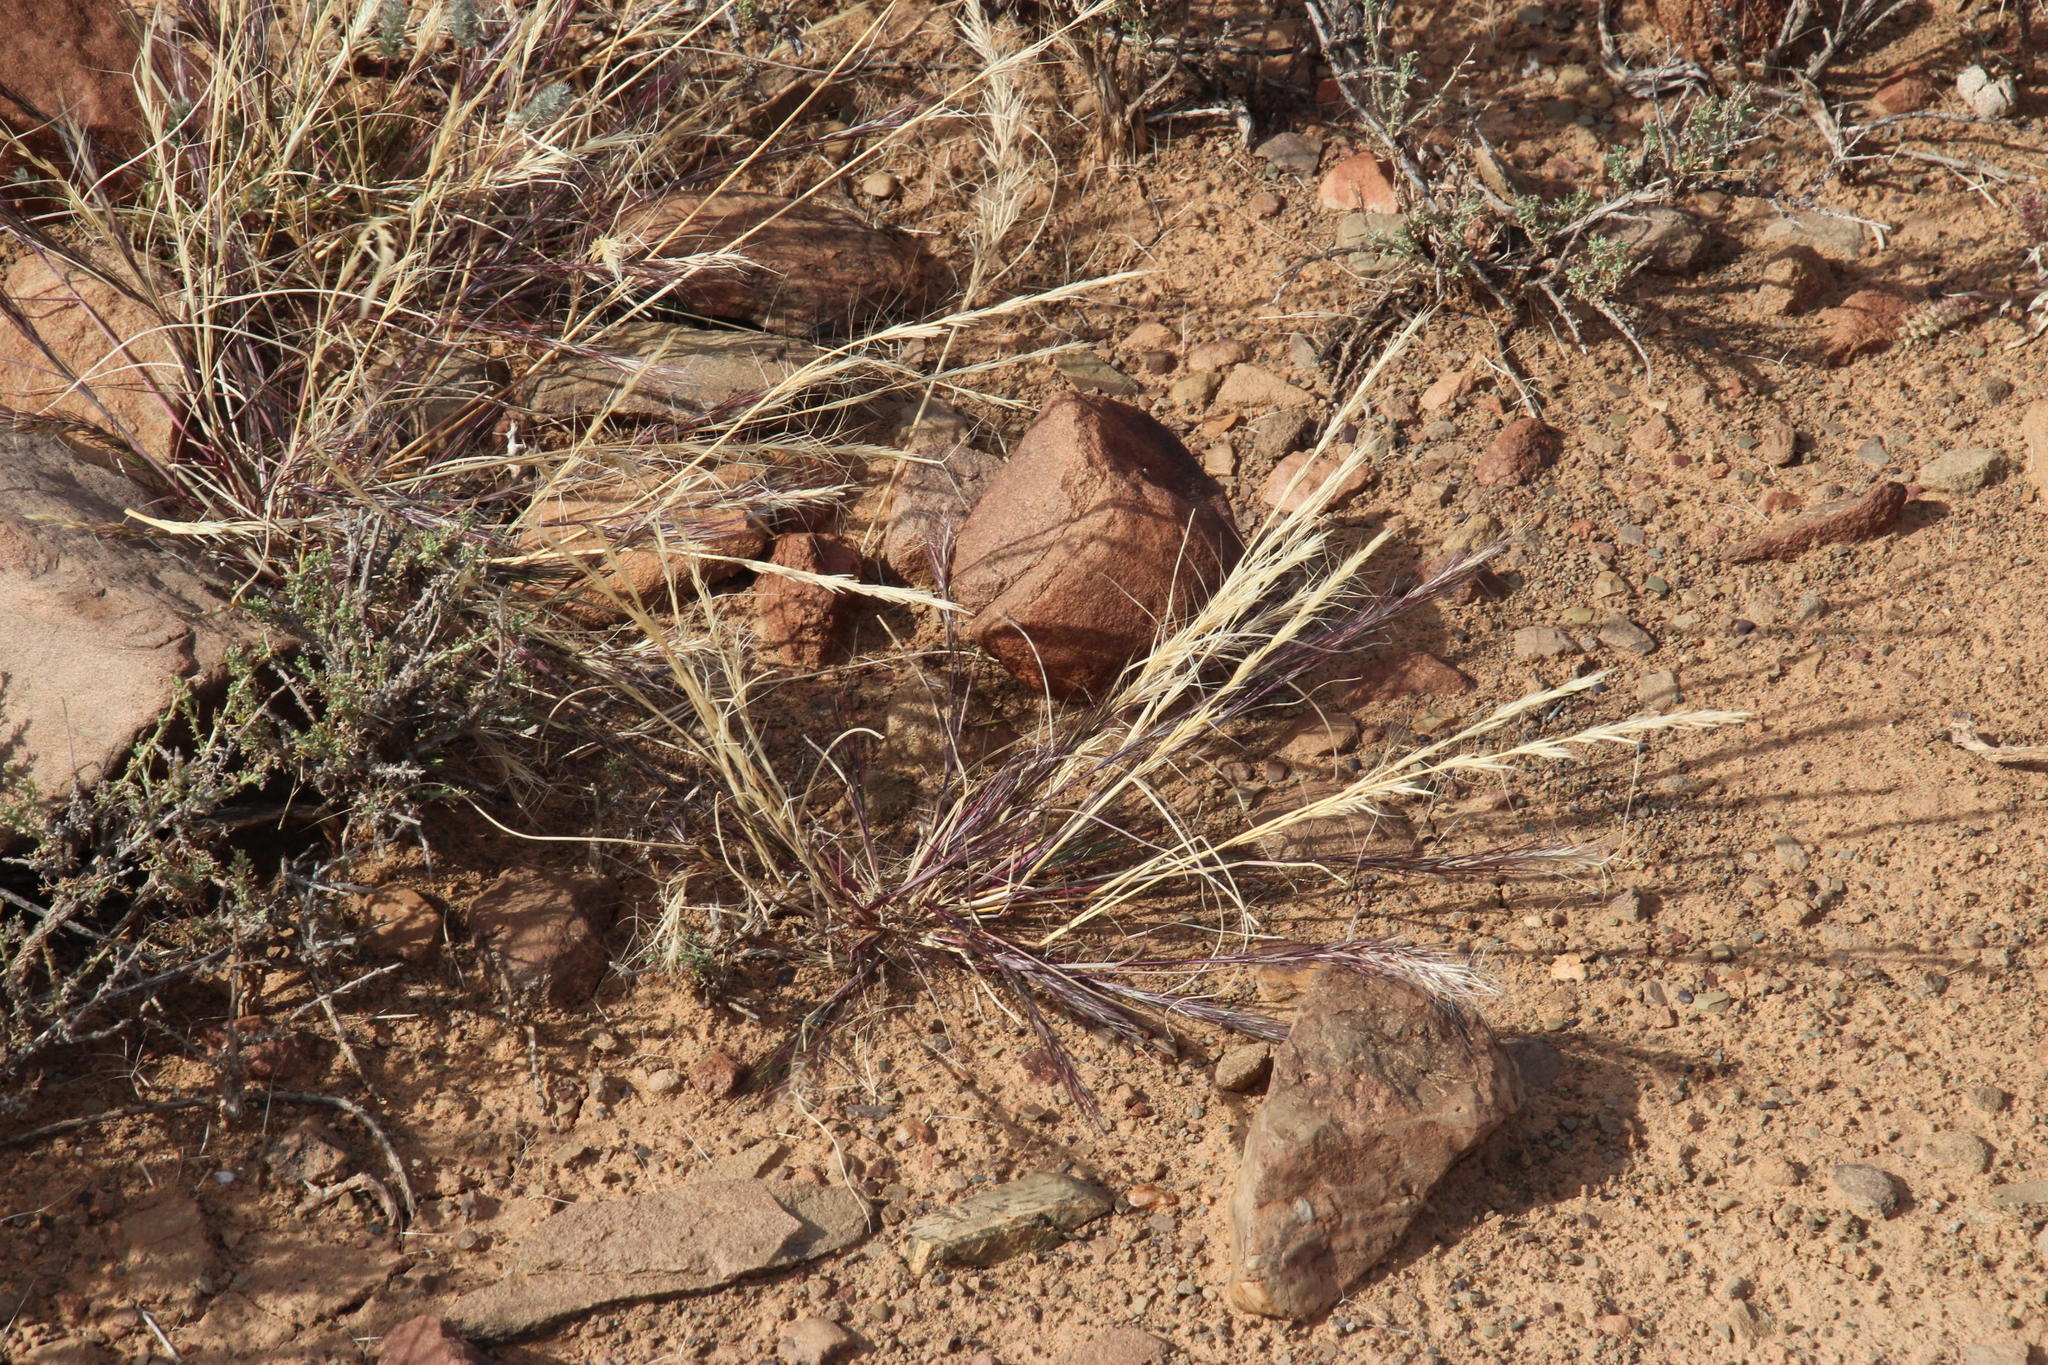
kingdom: Plantae
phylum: Tracheophyta
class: Liliopsida
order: Poales
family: Poaceae
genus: Aristida
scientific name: Aristida adscensionis
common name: Sixweeks threeawn
